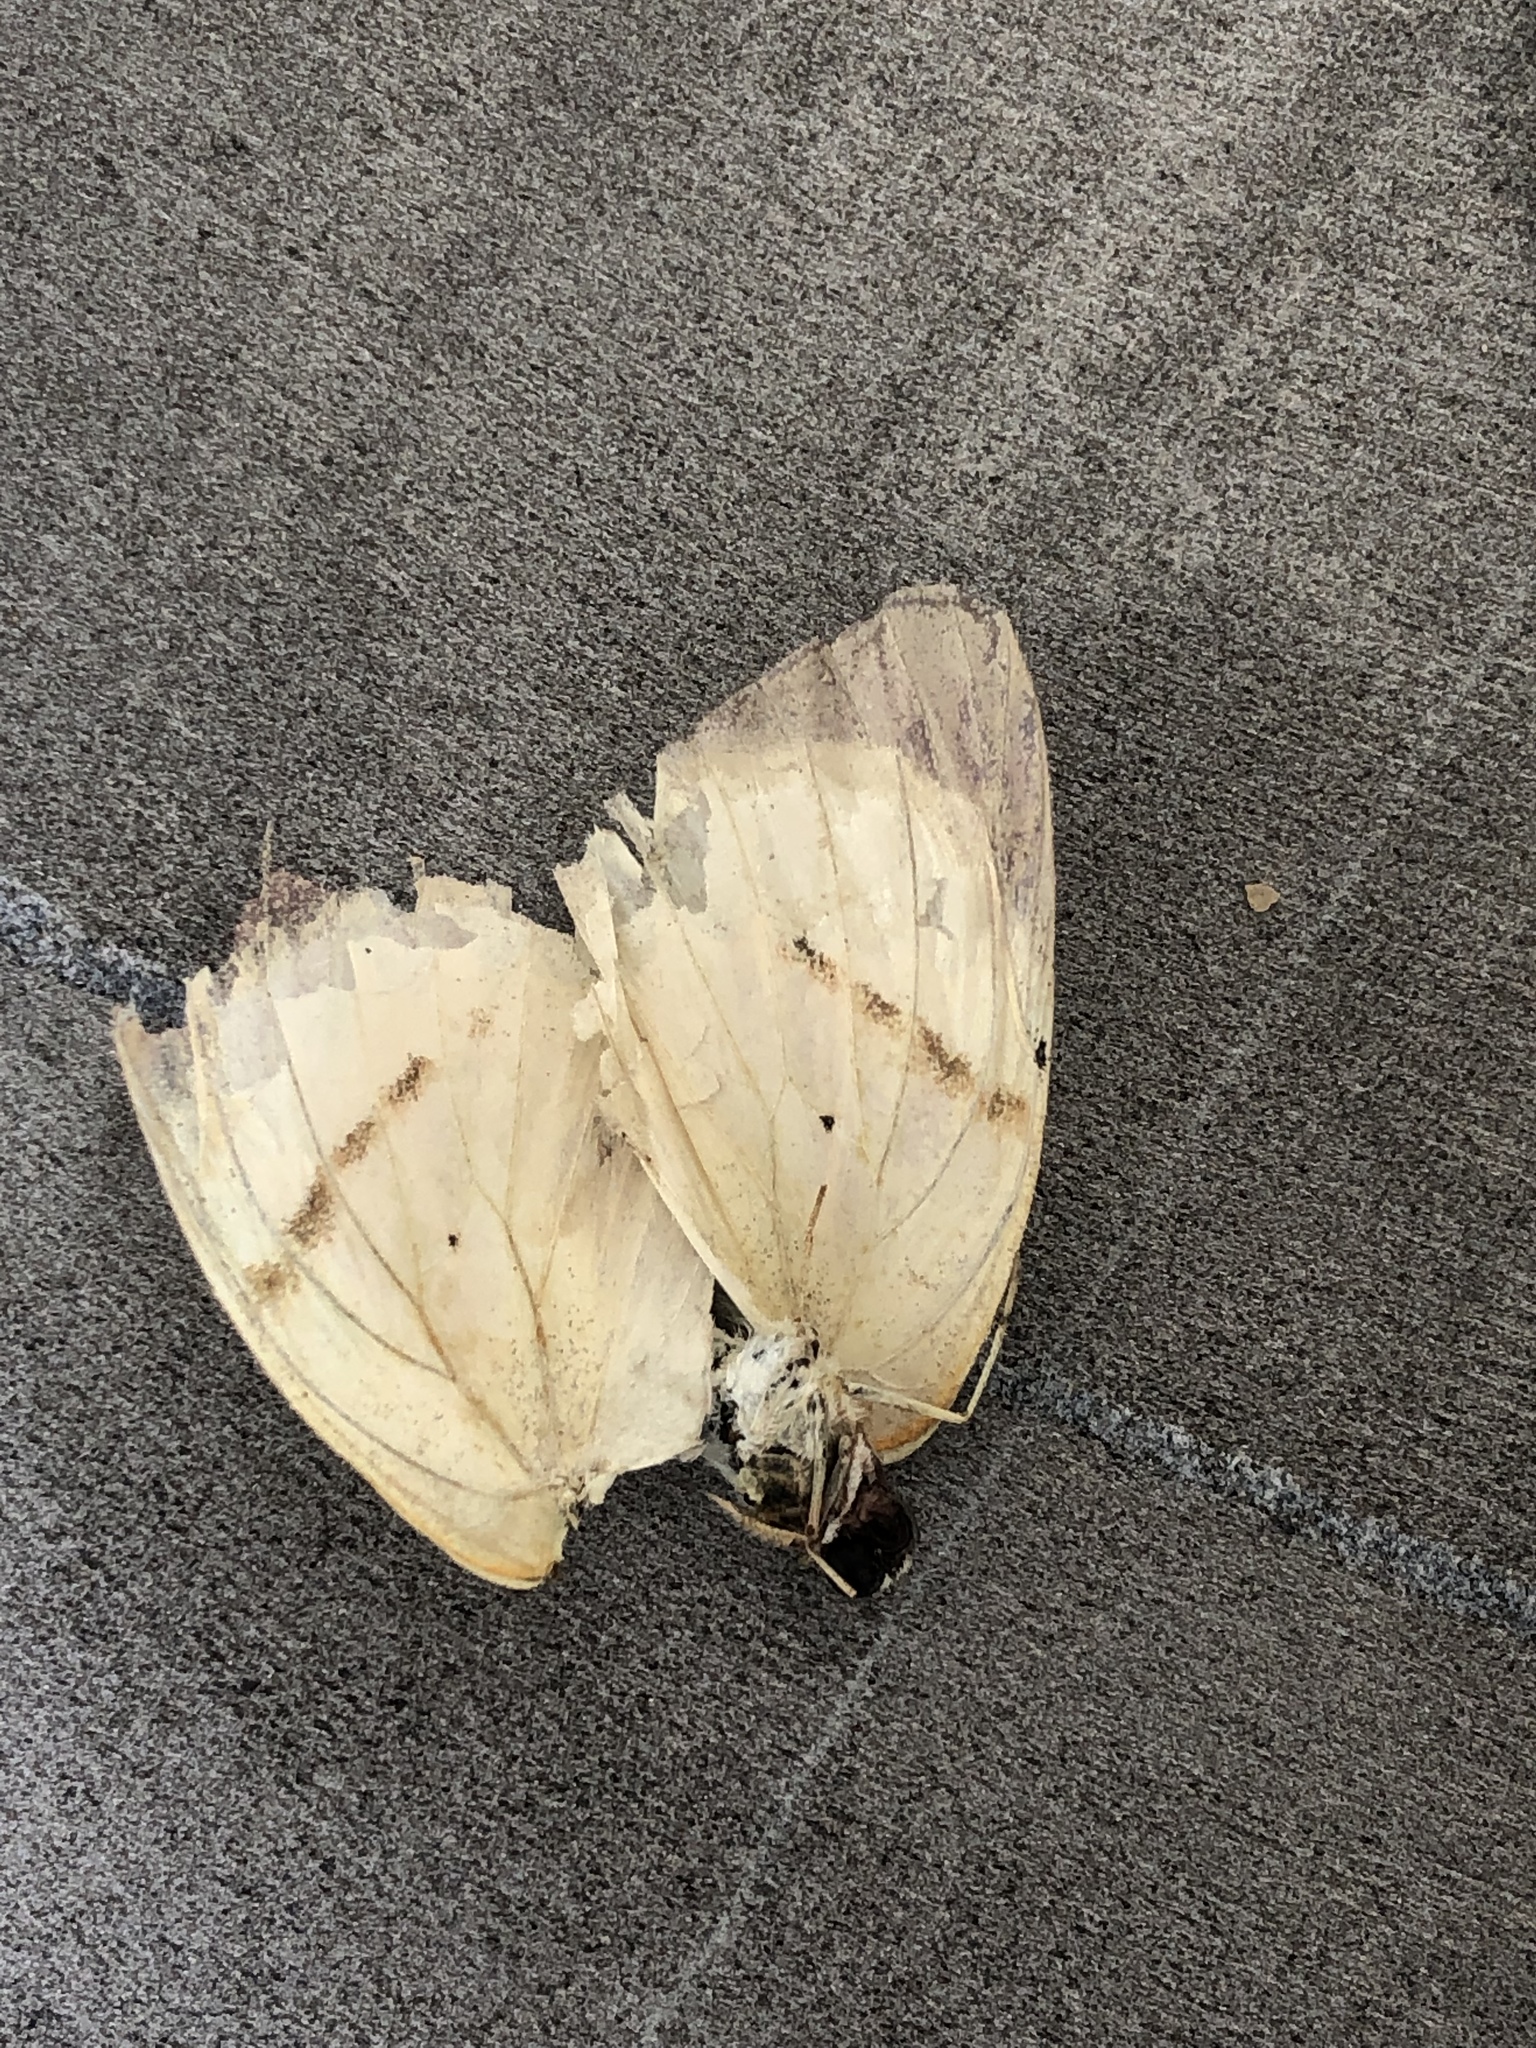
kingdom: Animalia
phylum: Arthropoda
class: Insecta
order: Lepidoptera
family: Pieridae
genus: Colotis
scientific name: Colotis ione
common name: Bushveld purple tip
